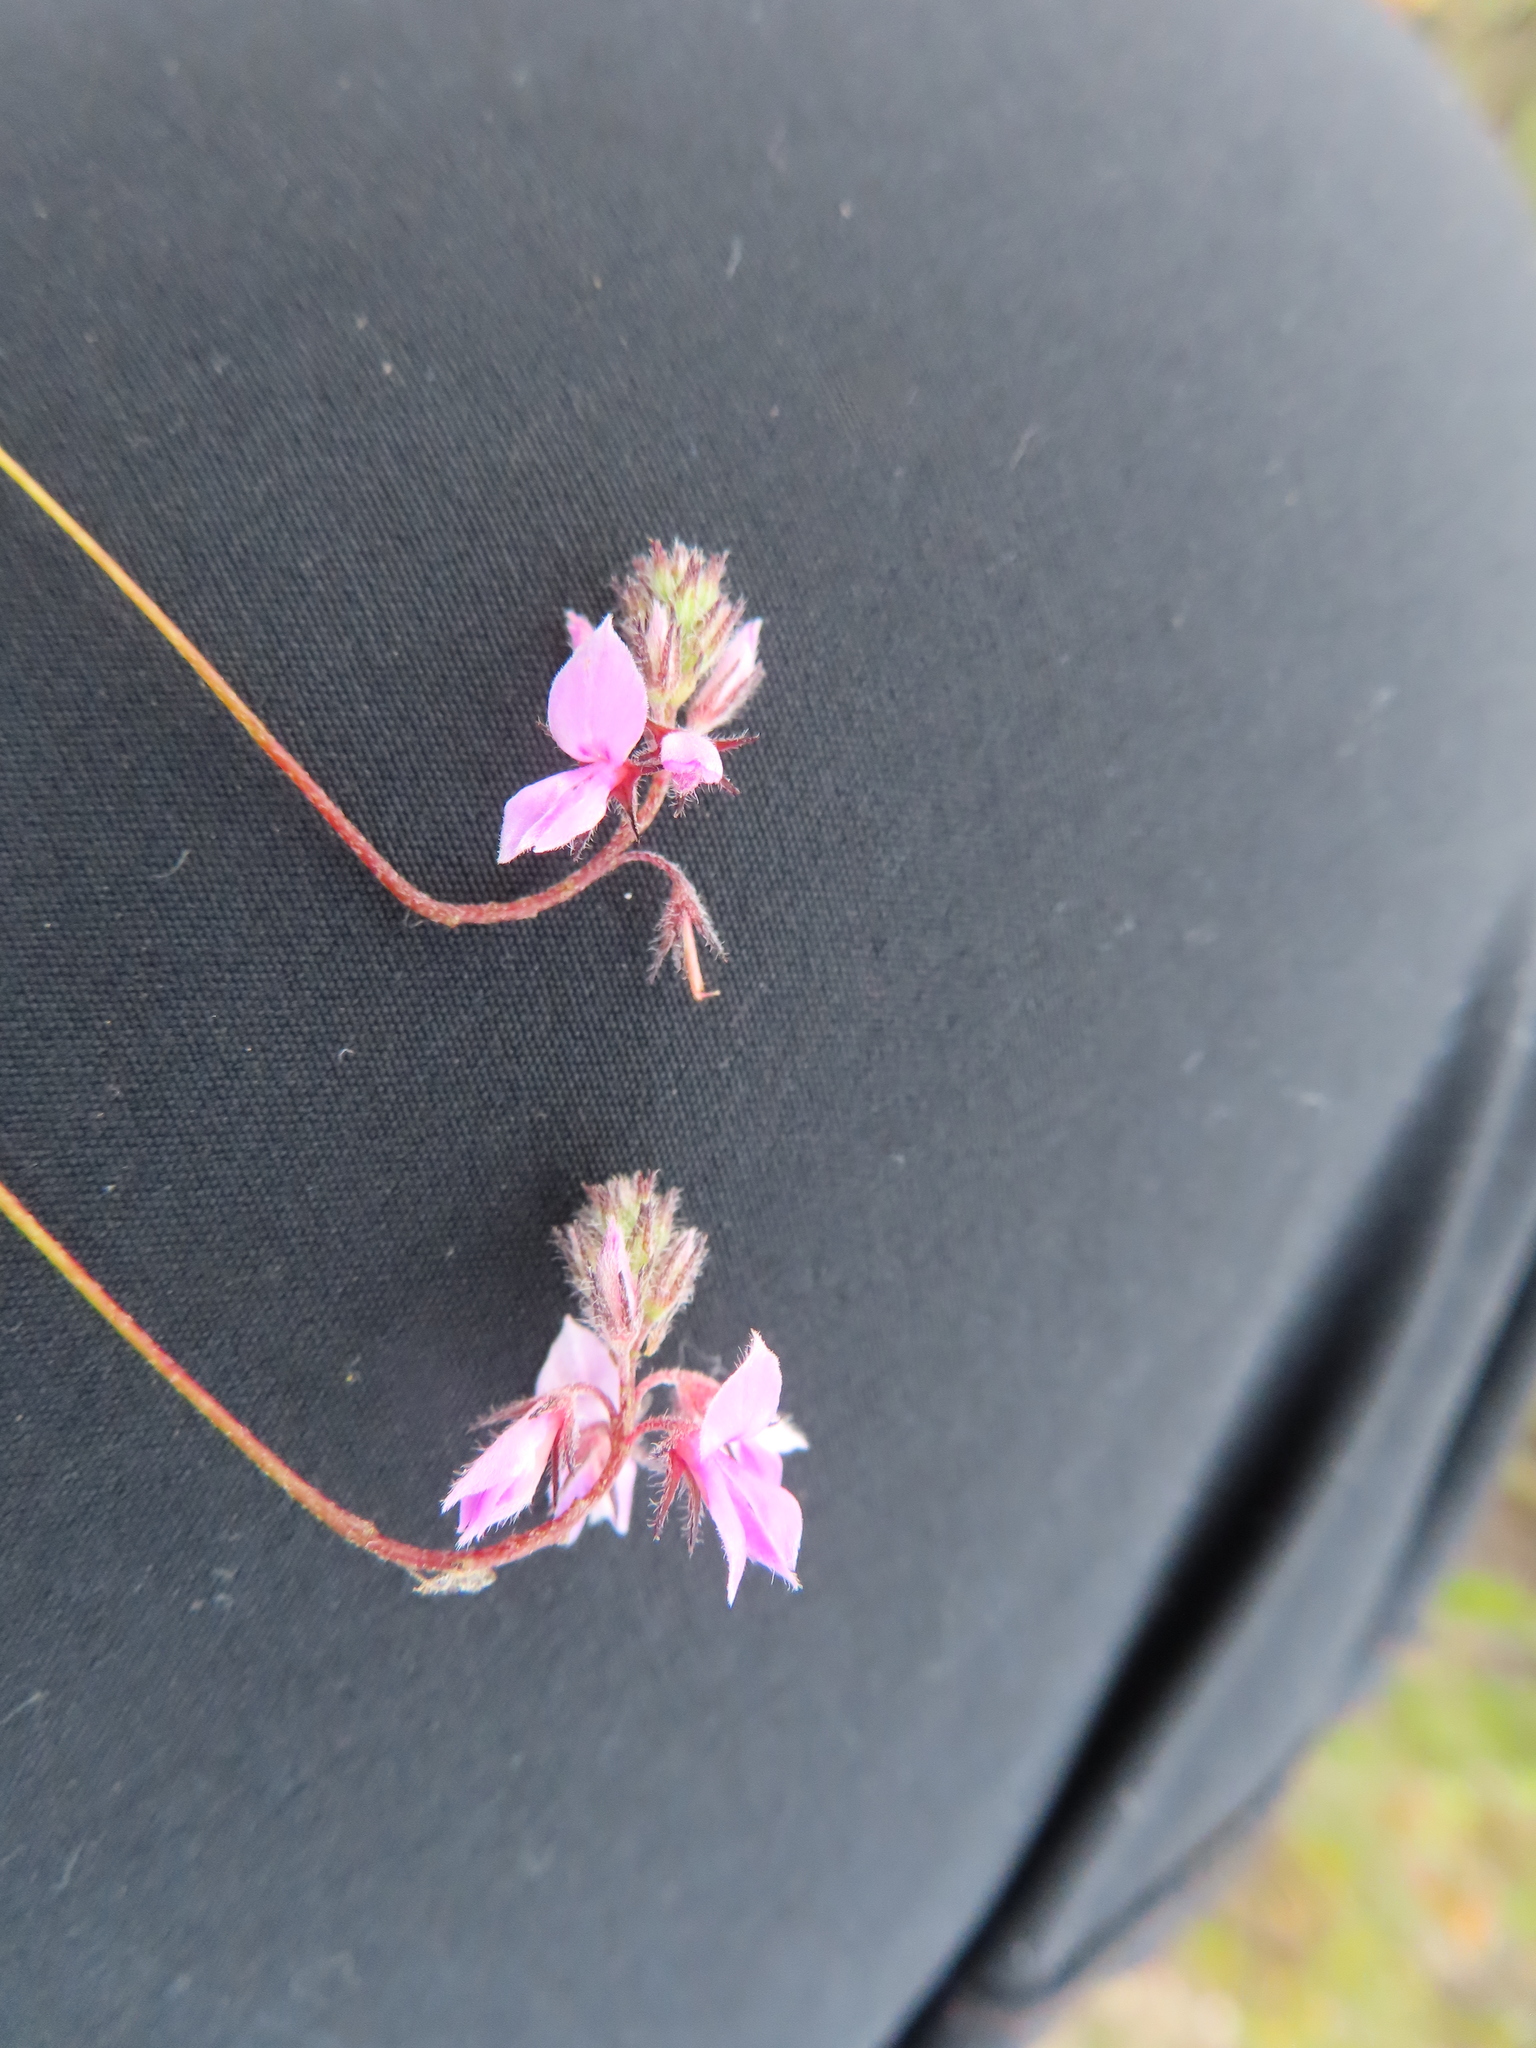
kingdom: Plantae
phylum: Tracheophyta
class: Magnoliopsida
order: Fabales
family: Fabaceae
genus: Indigofera
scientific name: Indigofera alopecuroides
